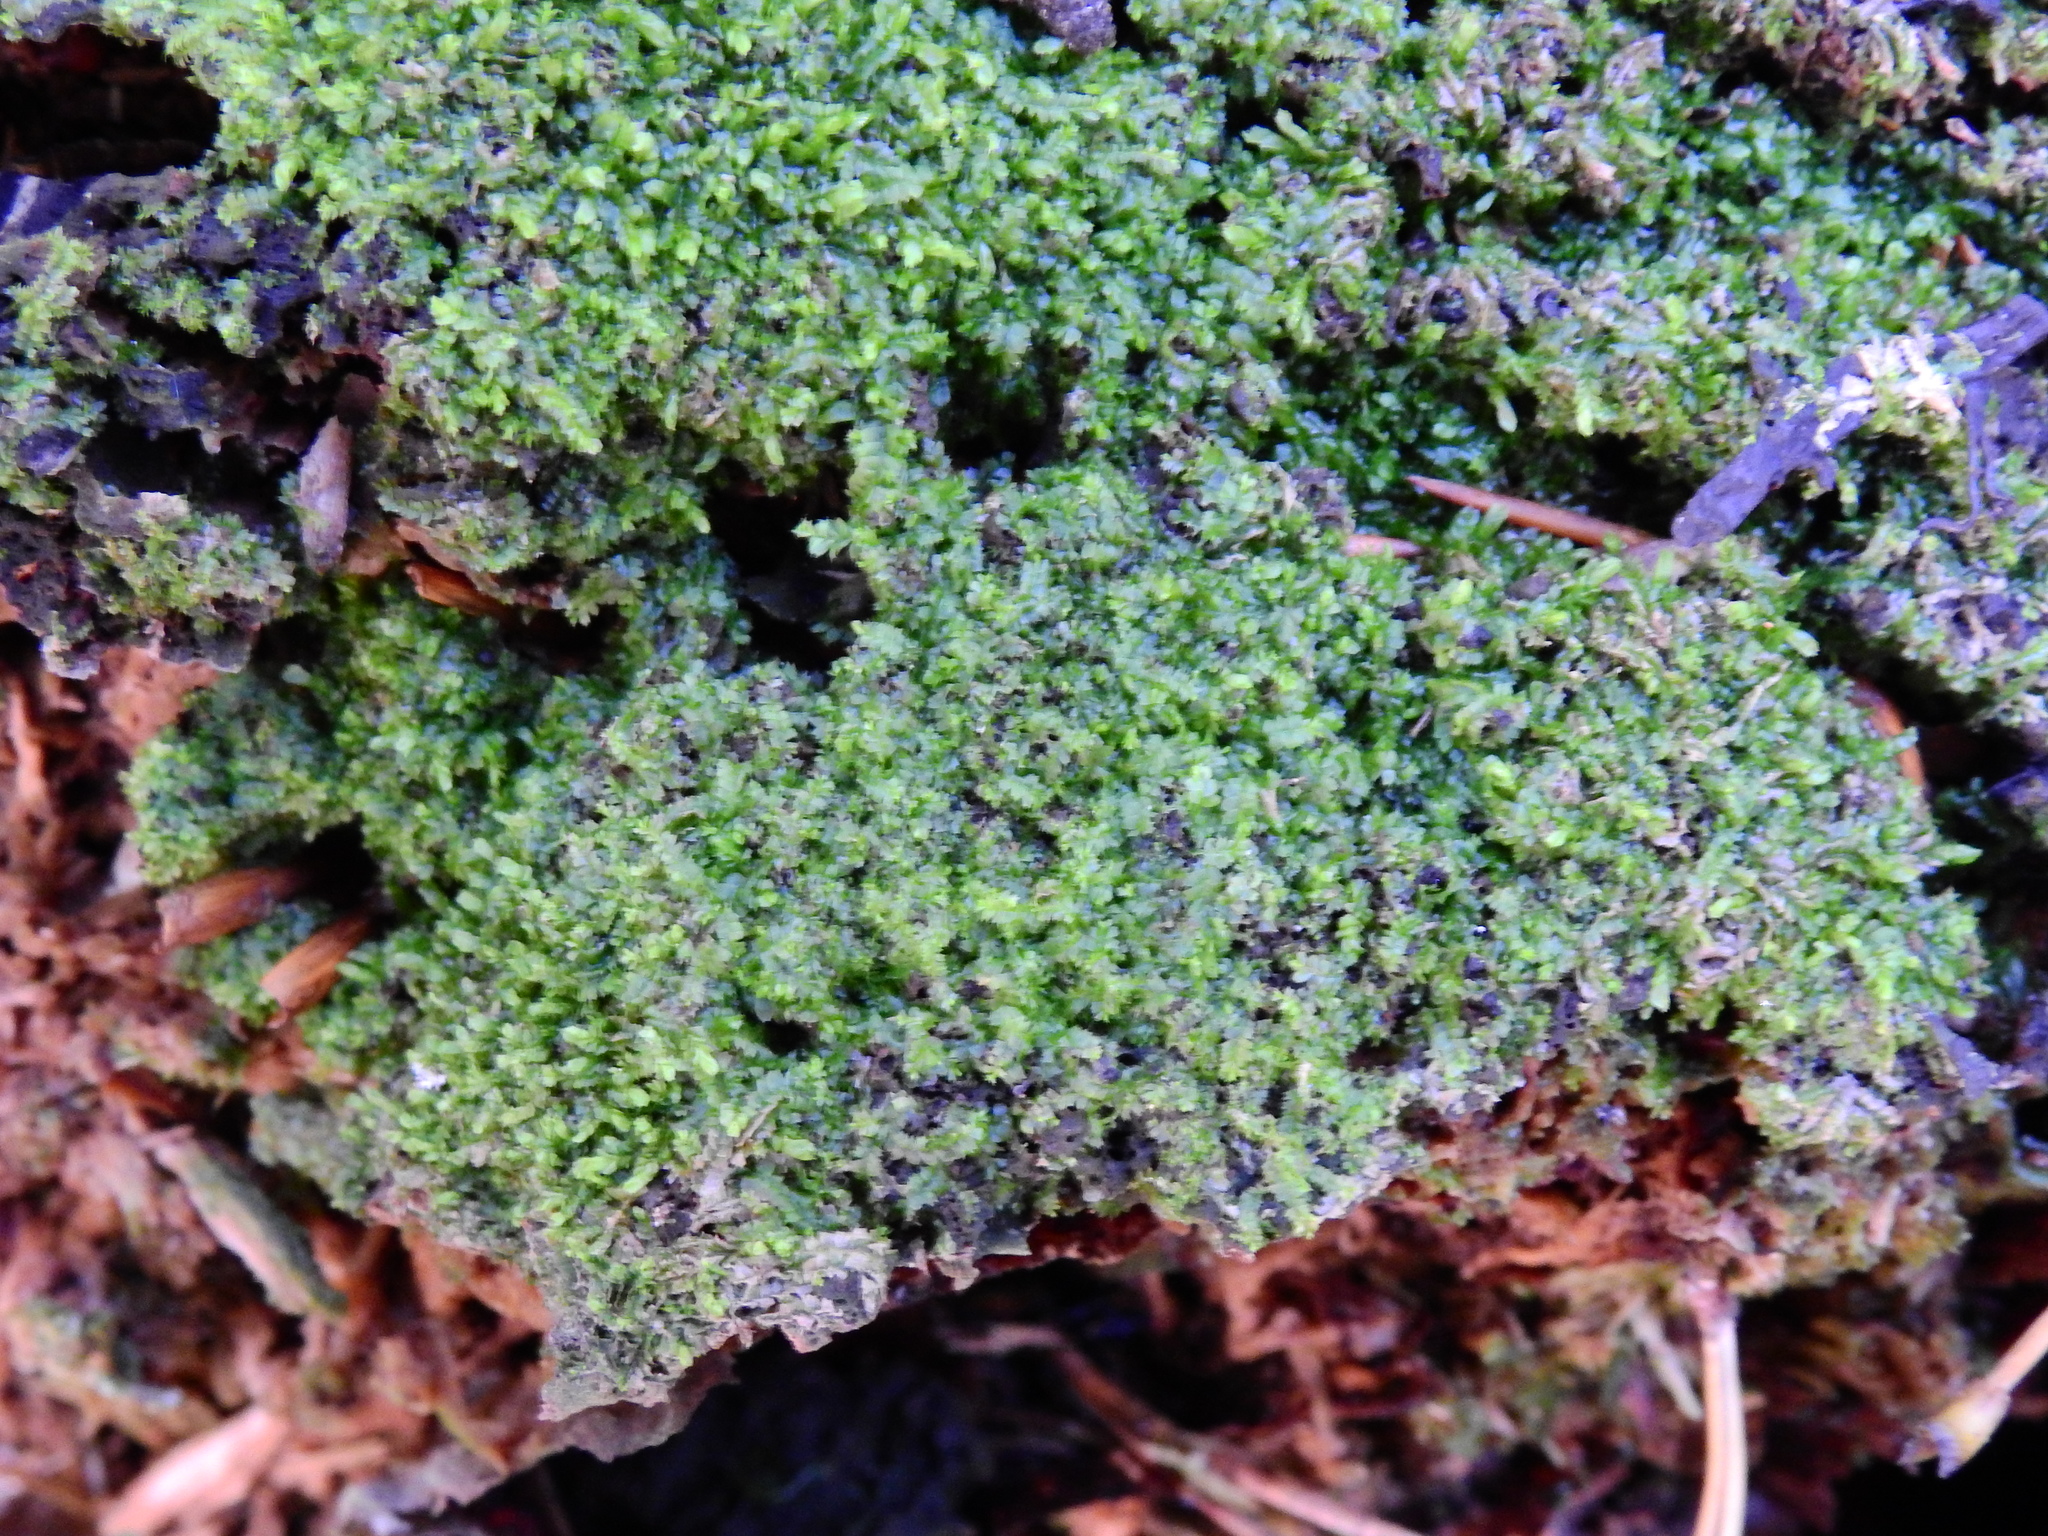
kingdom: Plantae
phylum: Marchantiophyta
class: Jungermanniopsida
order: Jungermanniales
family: Lophocoleaceae
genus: Lophocolea
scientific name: Lophocolea heterophylla
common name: Variable-leaved crestwort
